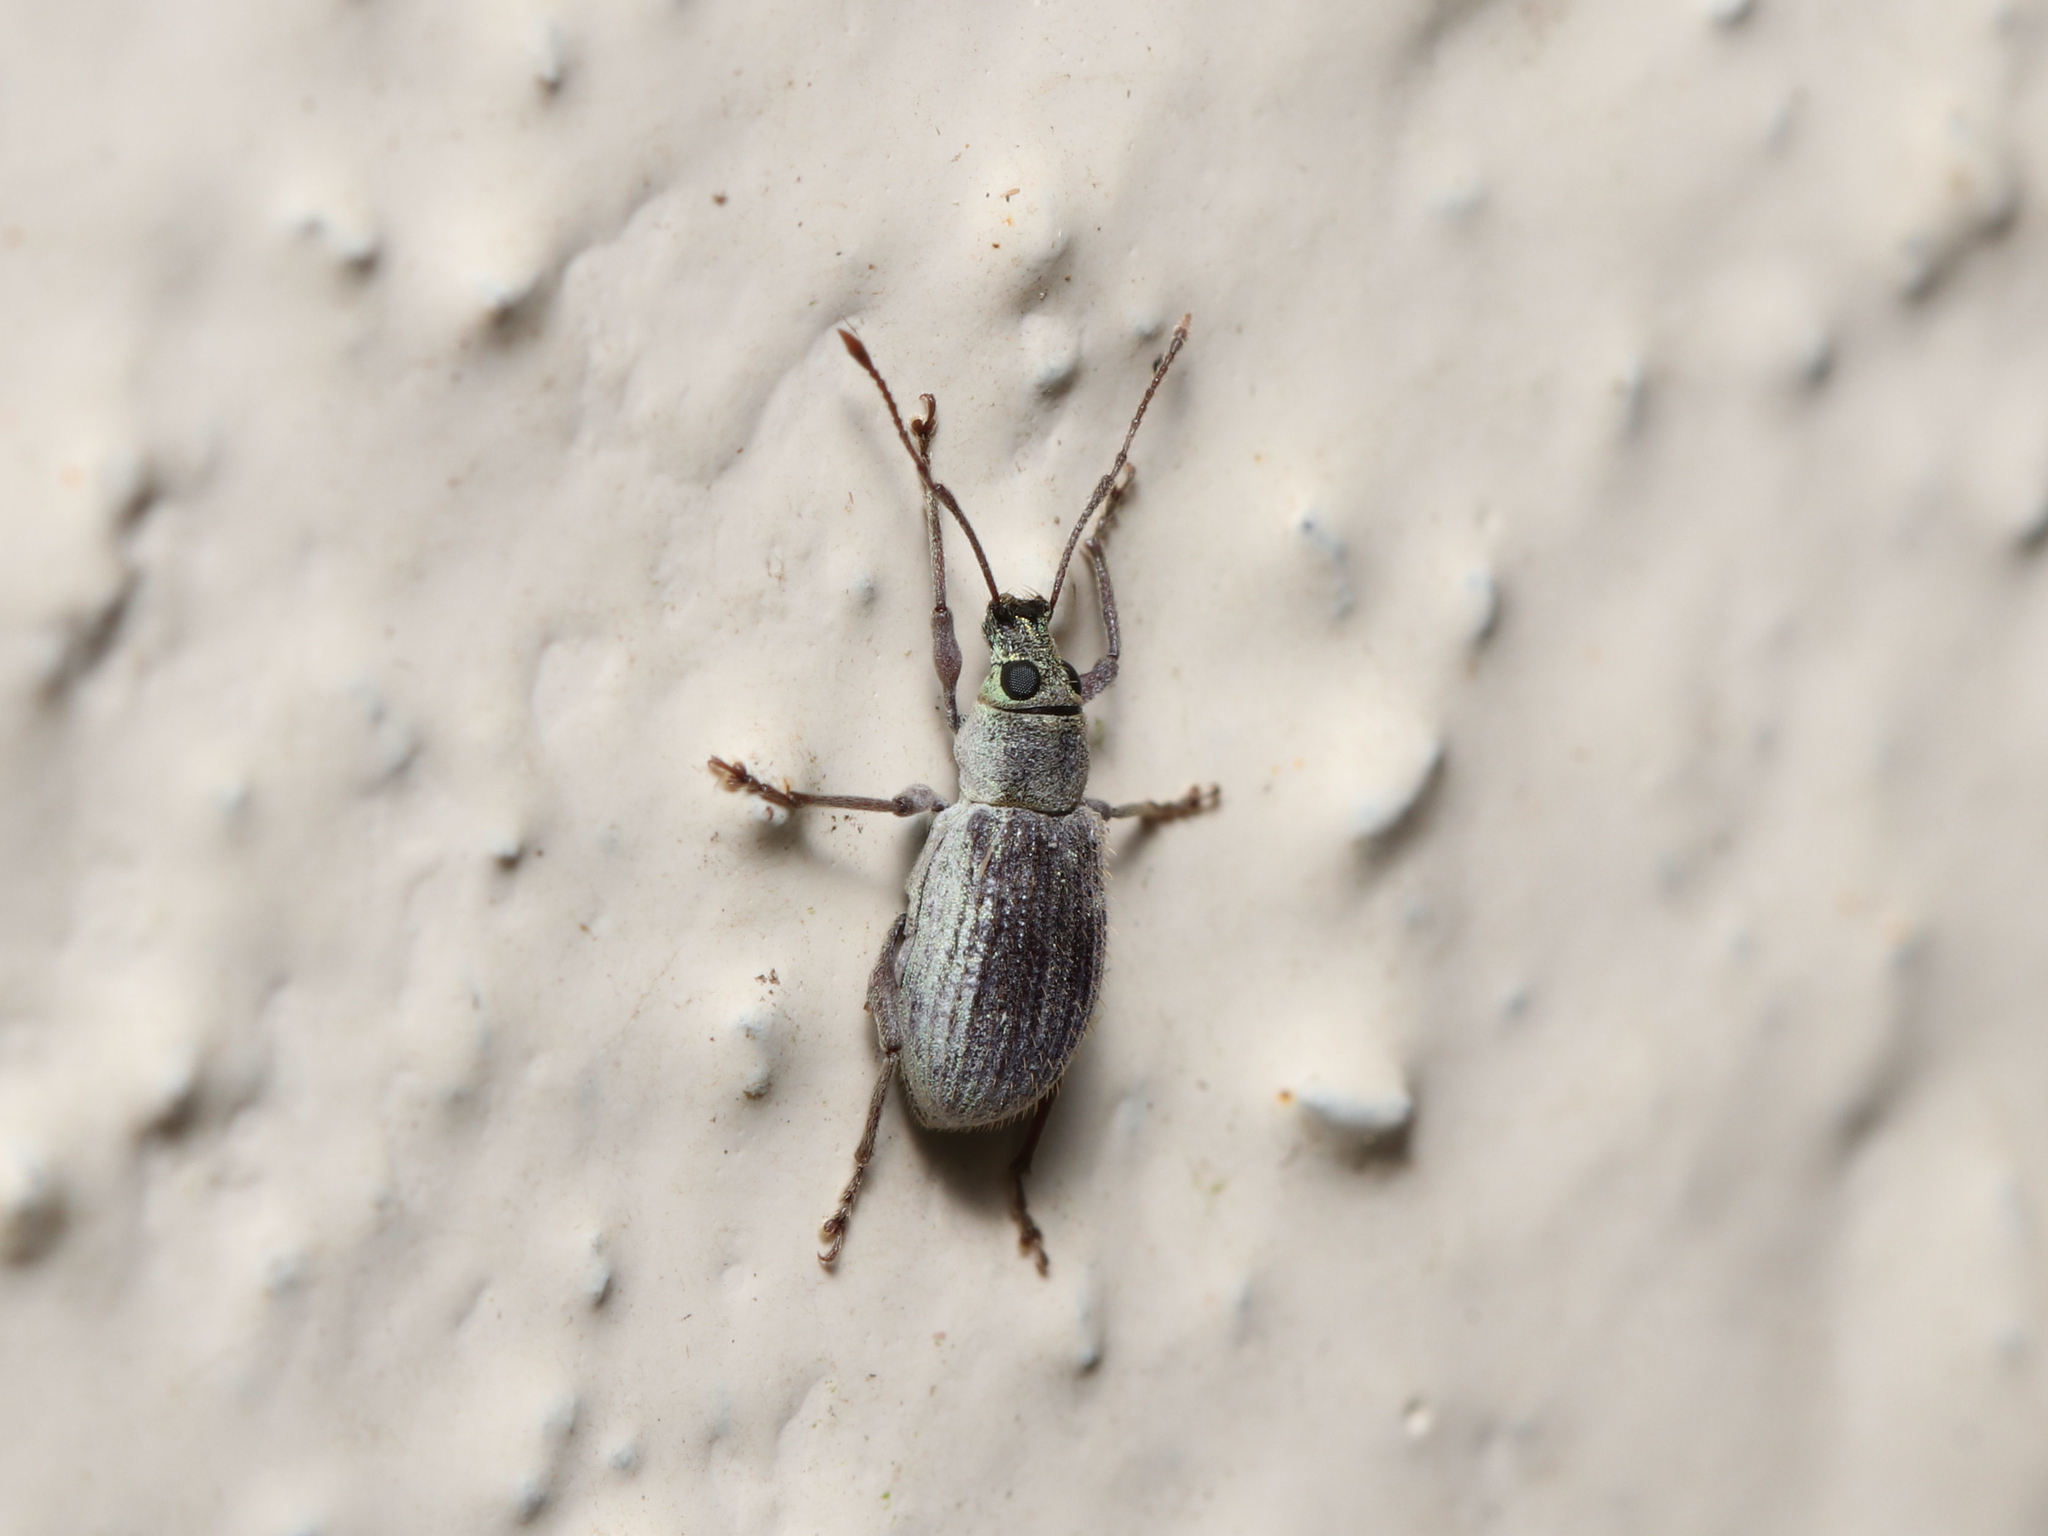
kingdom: Animalia
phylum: Arthropoda
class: Insecta
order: Coleoptera
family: Curculionidae
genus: Cyrtepistomus
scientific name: Cyrtepistomus castaneus
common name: Weevil
